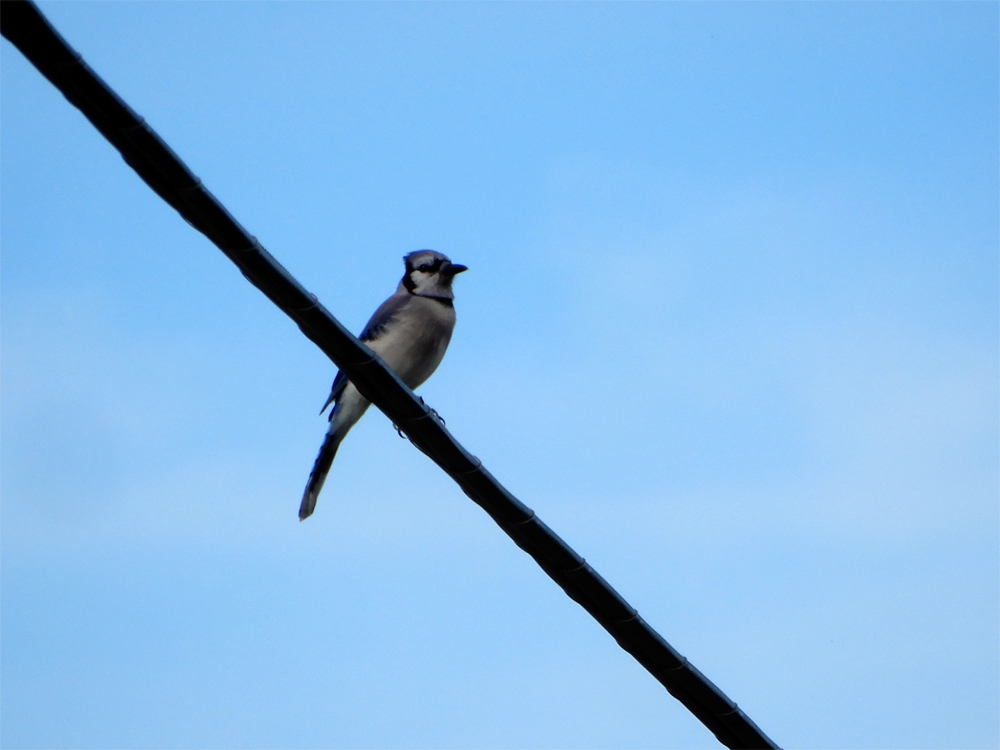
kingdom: Animalia
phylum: Chordata
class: Aves
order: Passeriformes
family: Corvidae
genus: Cyanocitta
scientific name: Cyanocitta cristata
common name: Blue jay
